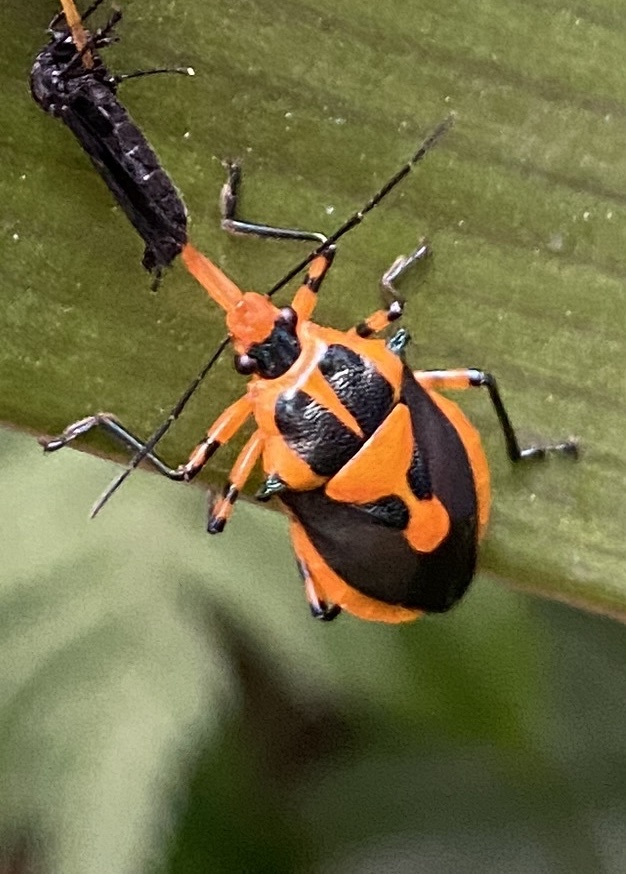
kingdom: Animalia
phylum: Arthropoda
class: Insecta
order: Hemiptera
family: Pentatomidae
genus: Euthyrhynchus
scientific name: Euthyrhynchus floridanus
